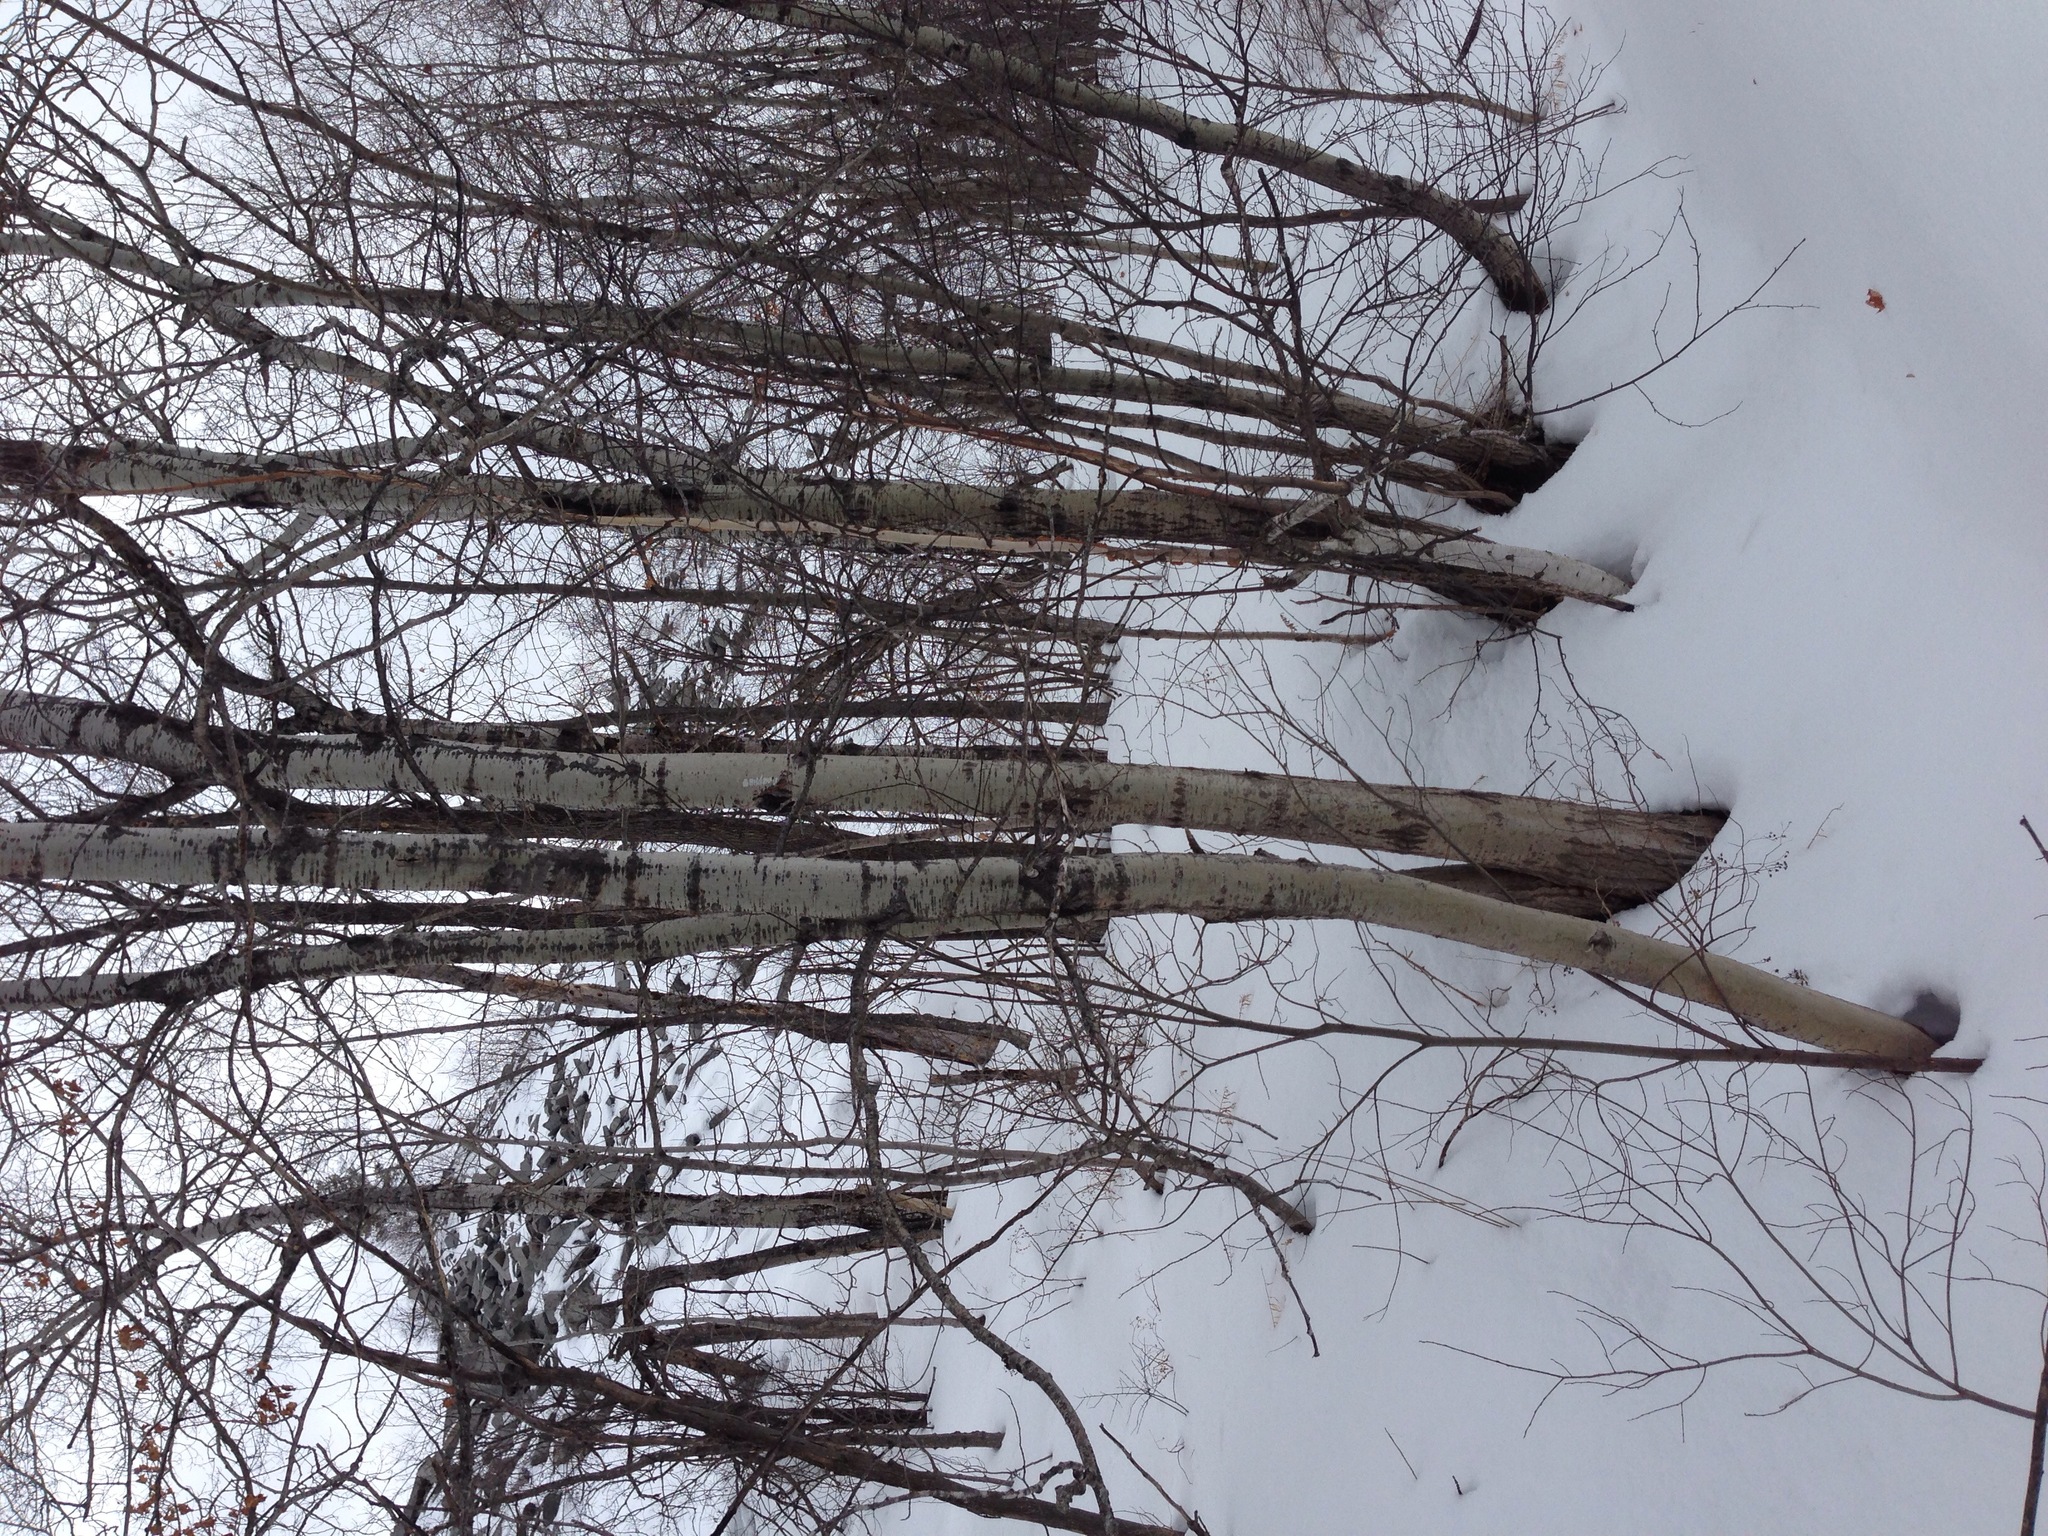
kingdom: Plantae
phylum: Tracheophyta
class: Magnoliopsida
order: Malpighiales
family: Salicaceae
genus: Populus
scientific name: Populus tremuloides
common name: Quaking aspen
